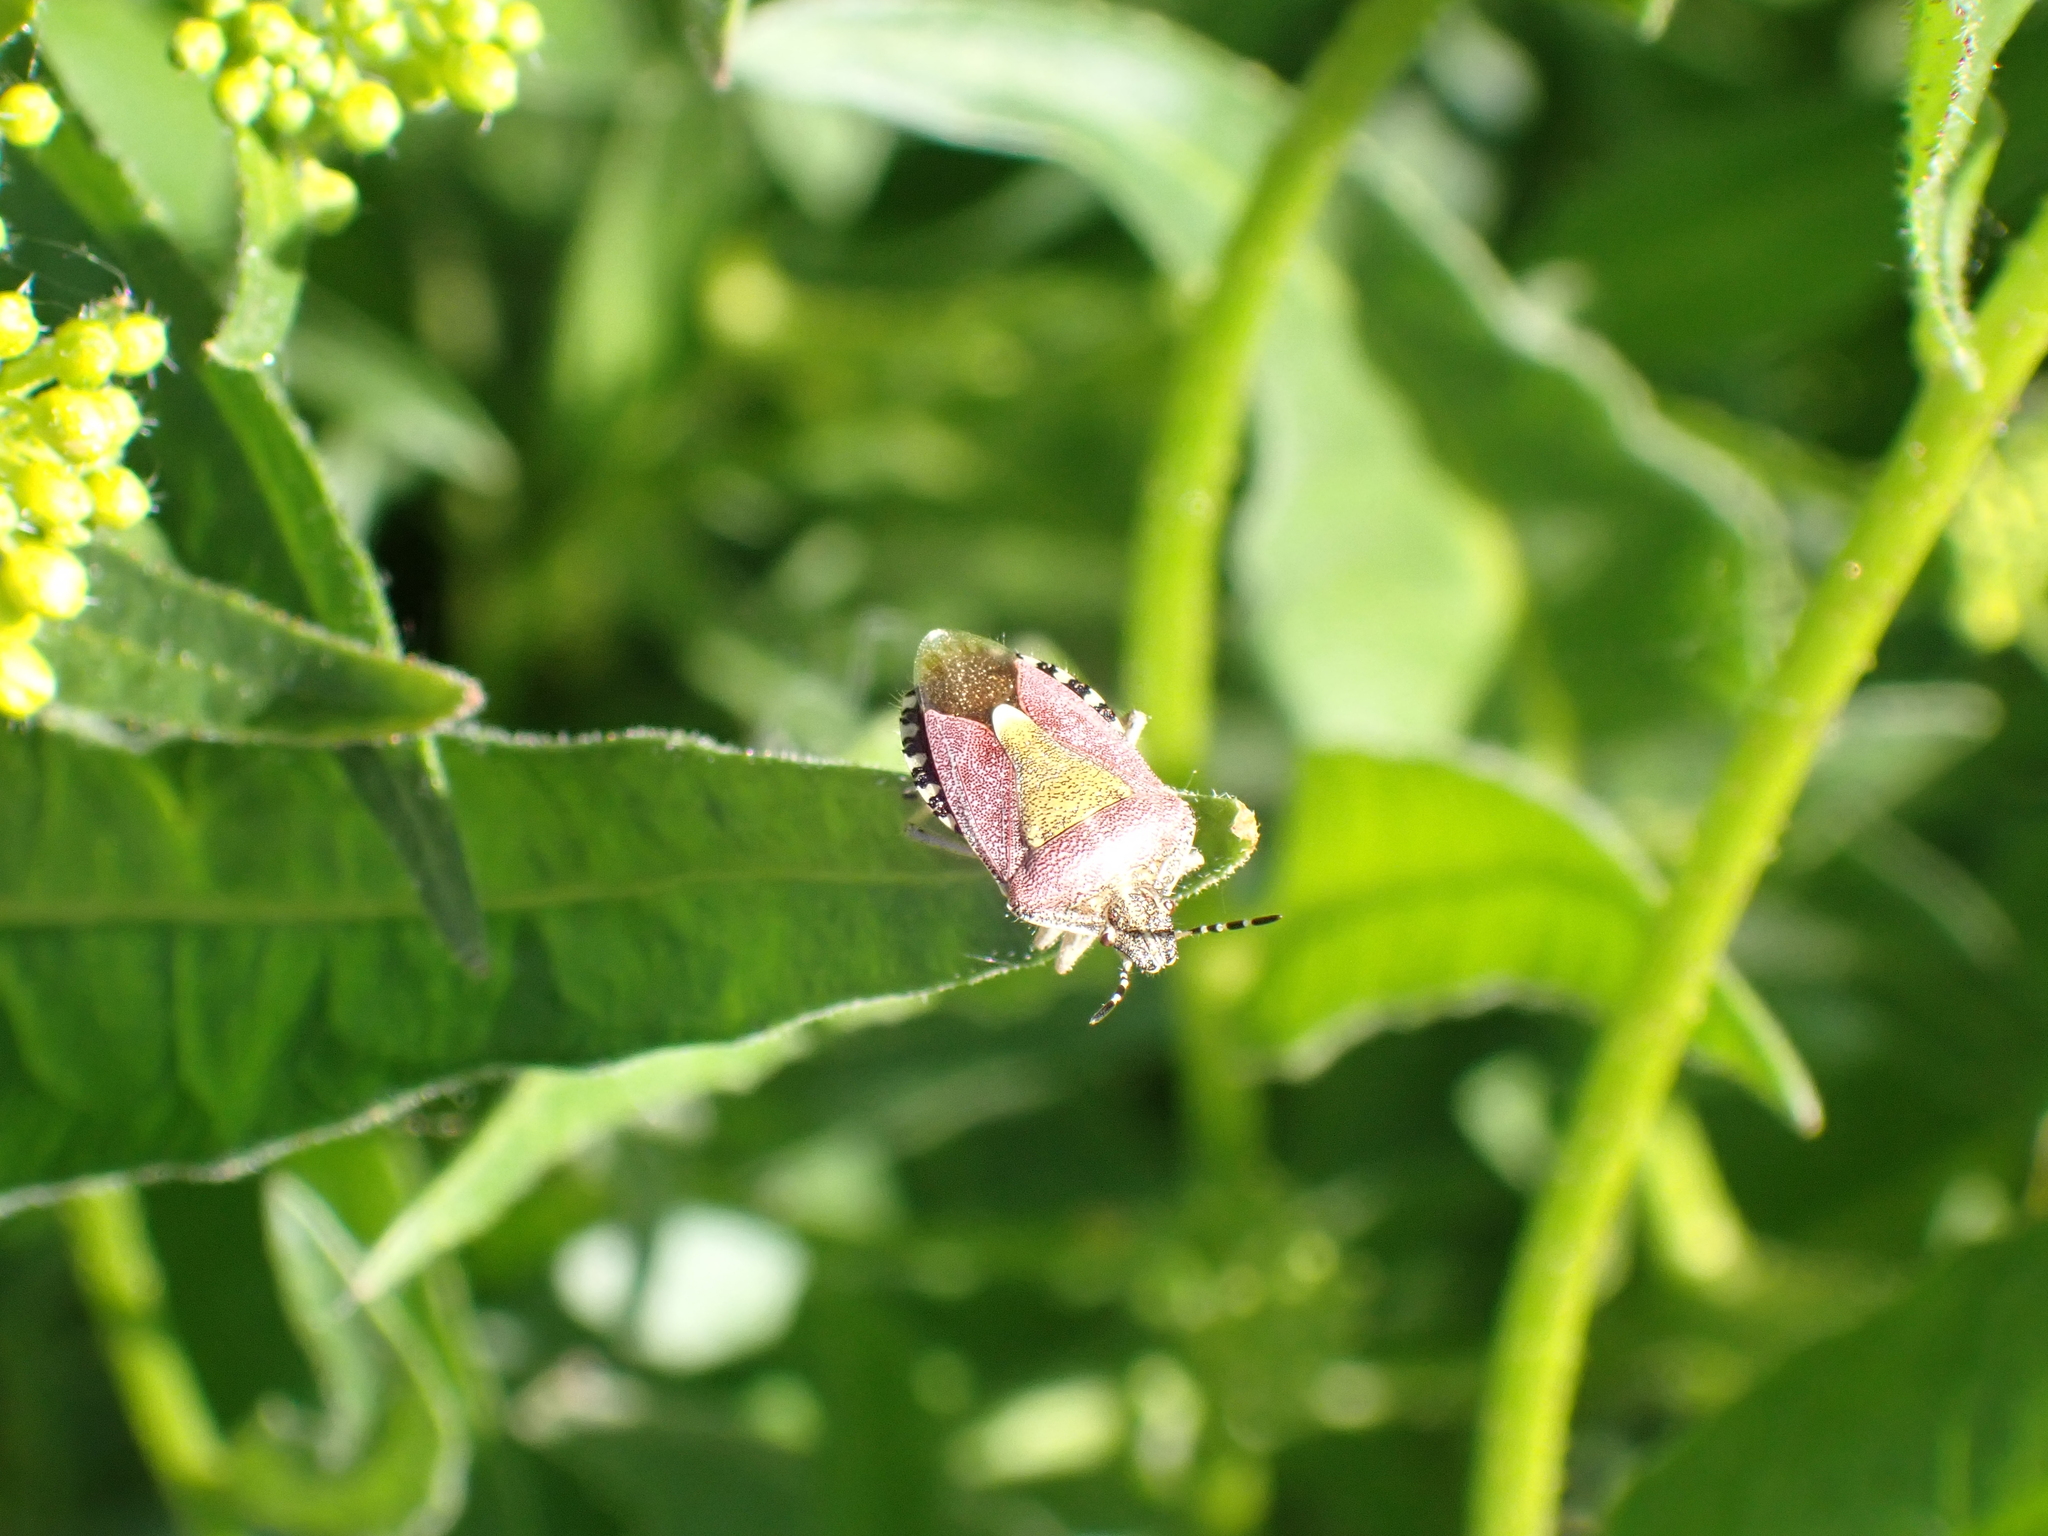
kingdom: Animalia
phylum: Arthropoda
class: Insecta
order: Hemiptera
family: Pentatomidae
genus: Dolycoris
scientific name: Dolycoris baccarum
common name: Sloe bug
